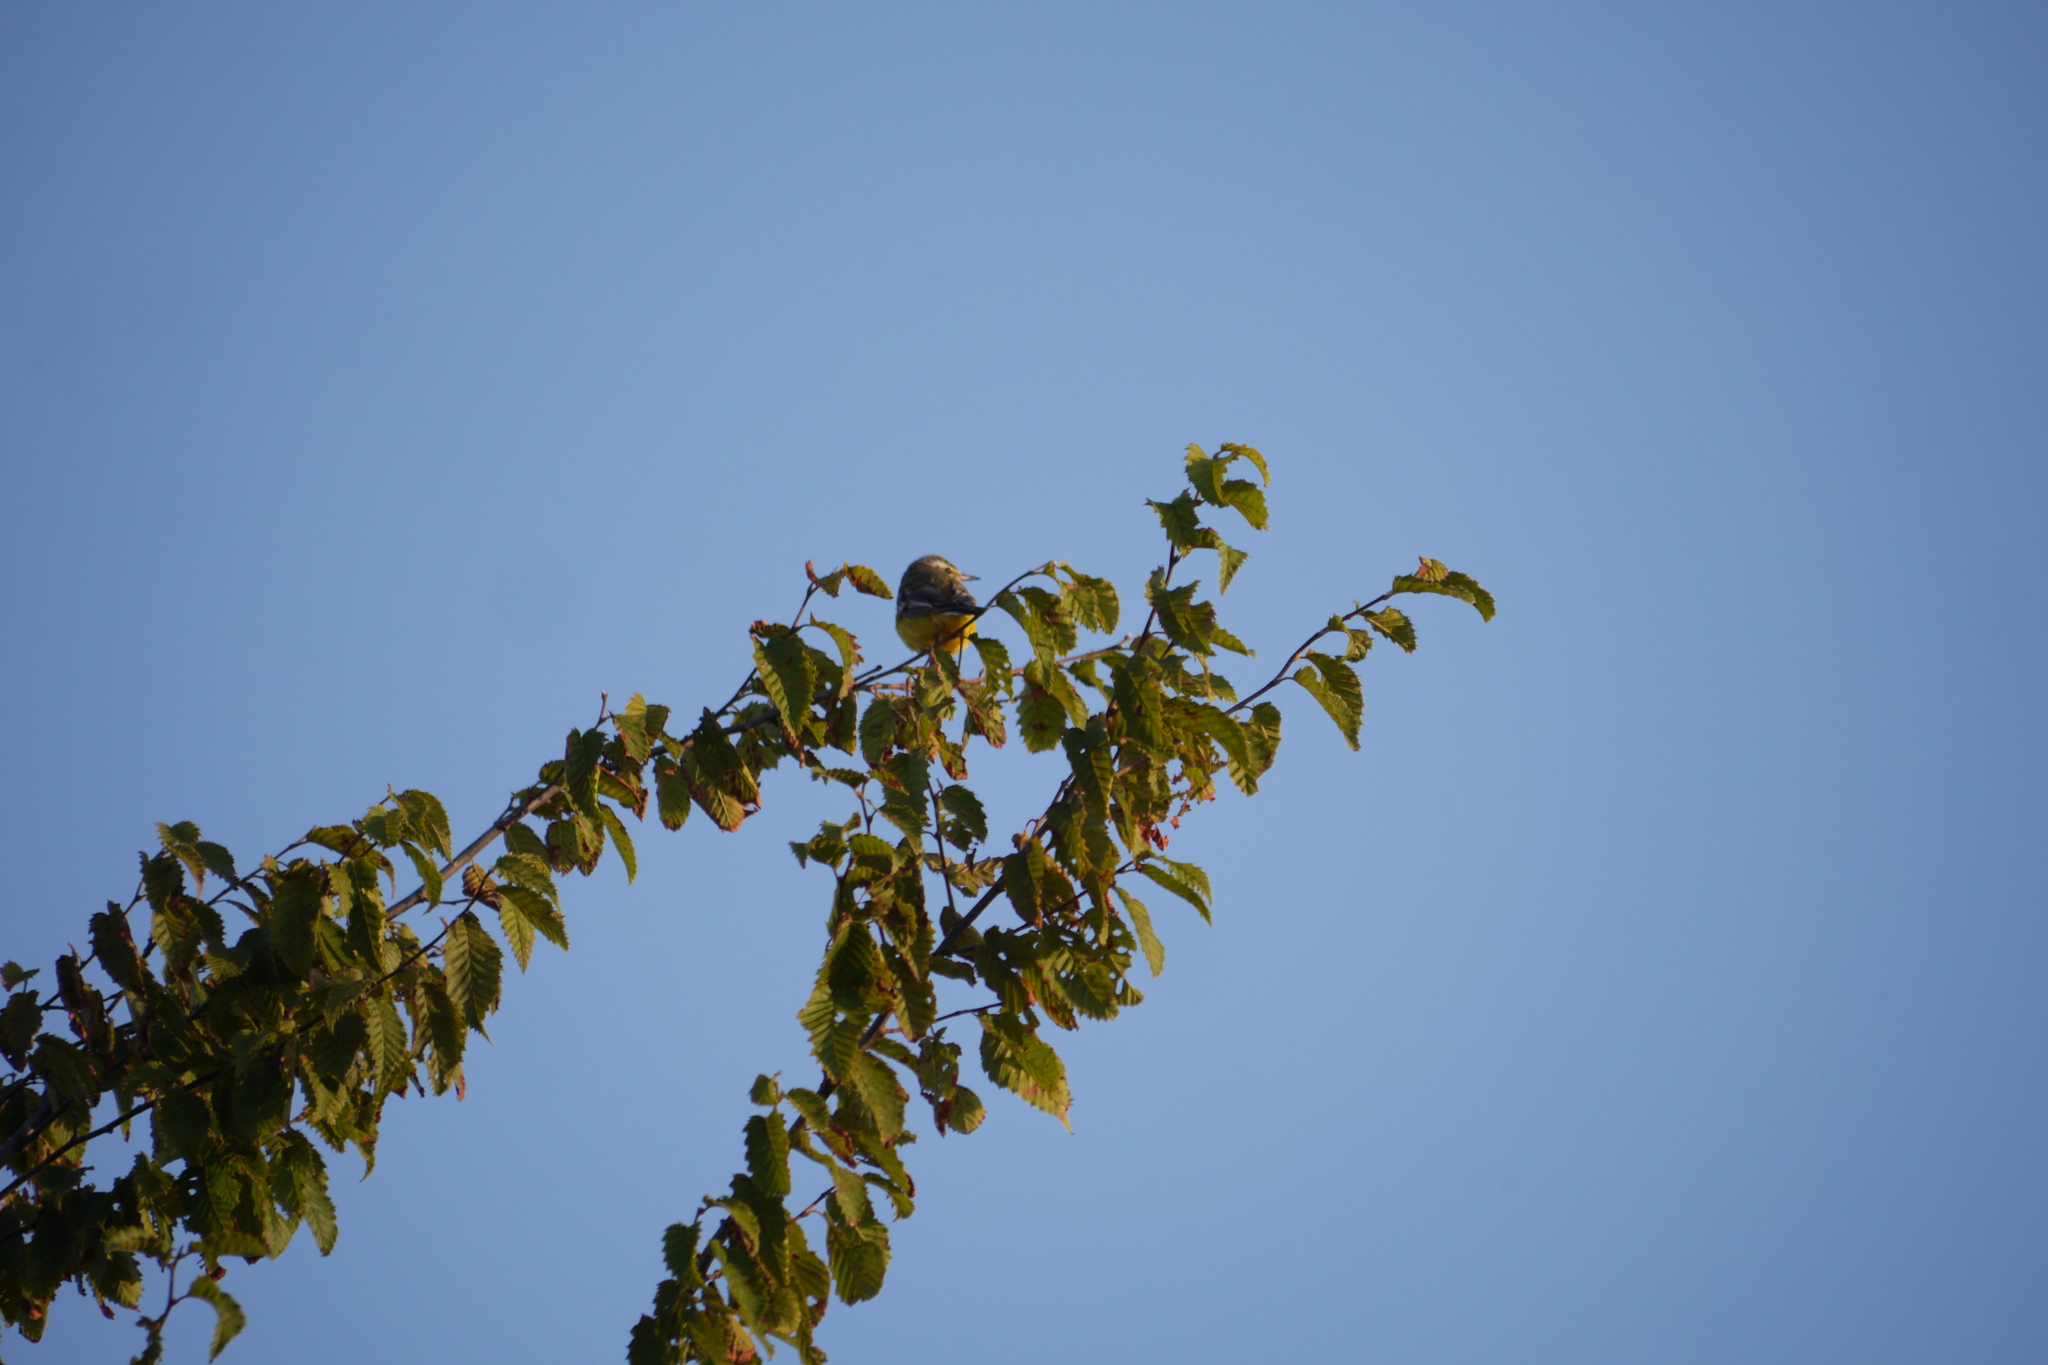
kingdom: Animalia
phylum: Chordata
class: Aves
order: Passeriformes
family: Motacillidae
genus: Motacilla
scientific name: Motacilla flava
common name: Western yellow wagtail
